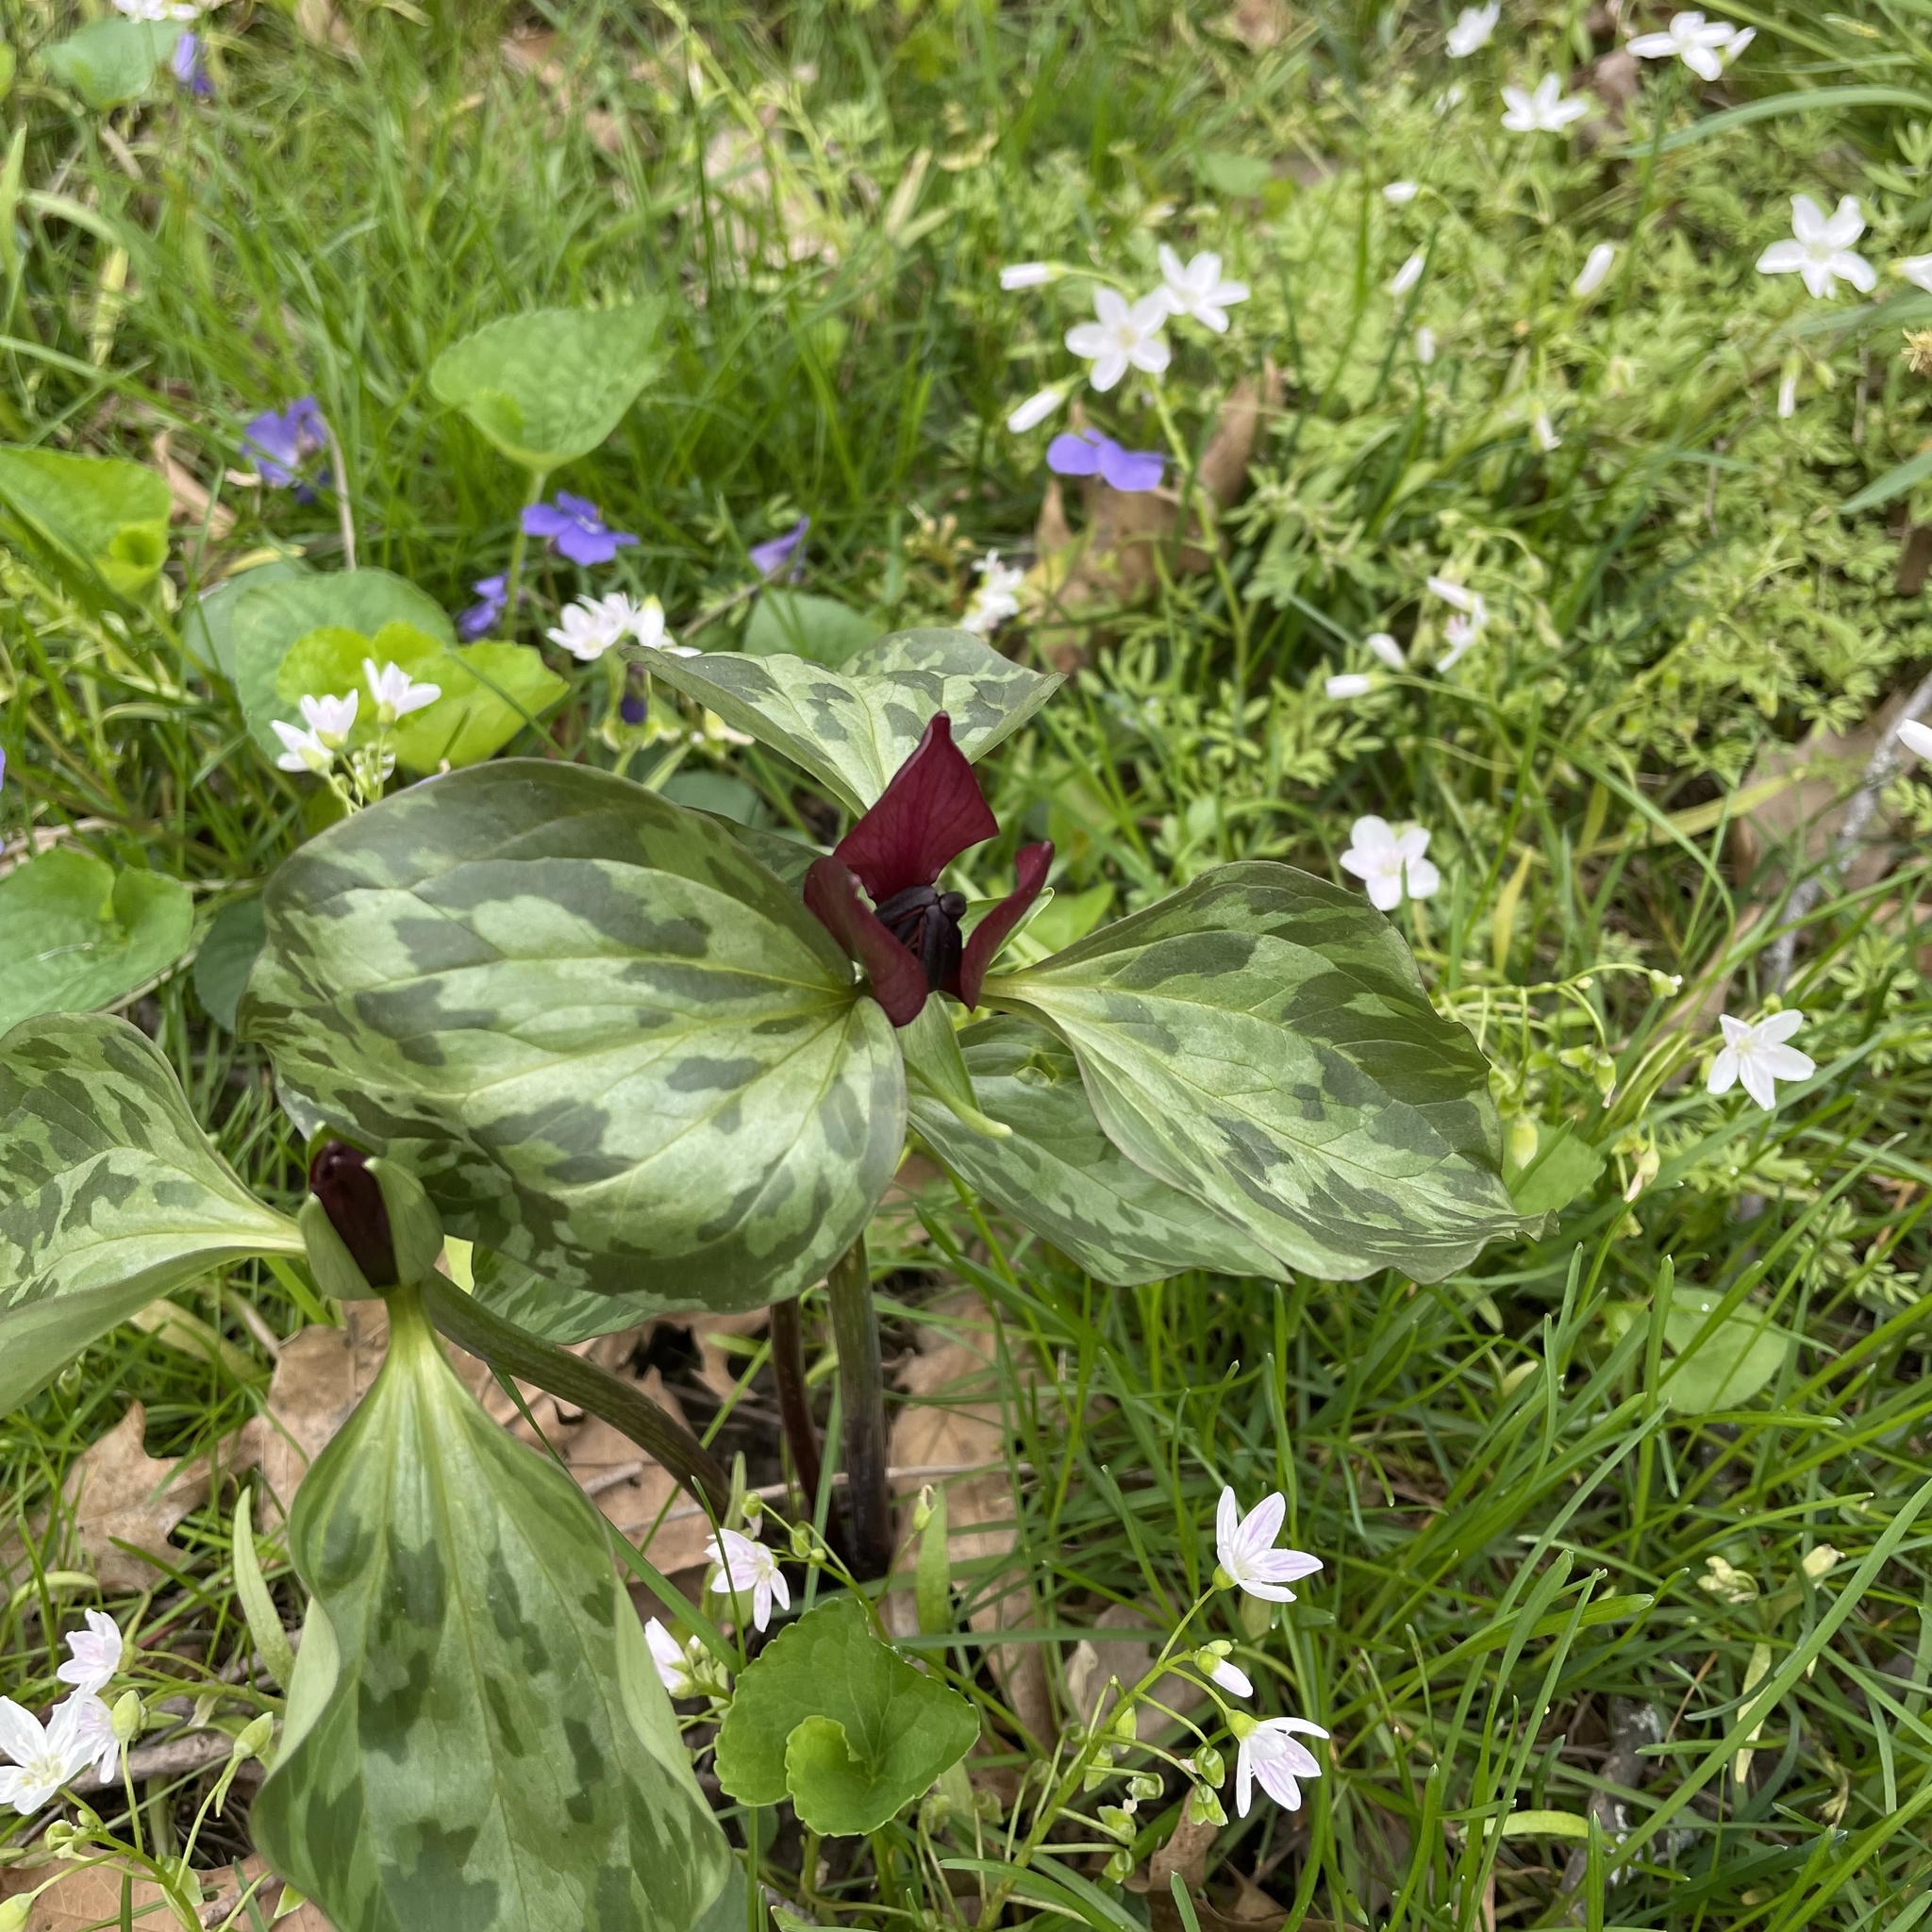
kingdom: Plantae
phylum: Tracheophyta
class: Liliopsida
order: Liliales
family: Melanthiaceae
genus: Trillium
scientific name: Trillium recurvatum
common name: Bloody butcher
